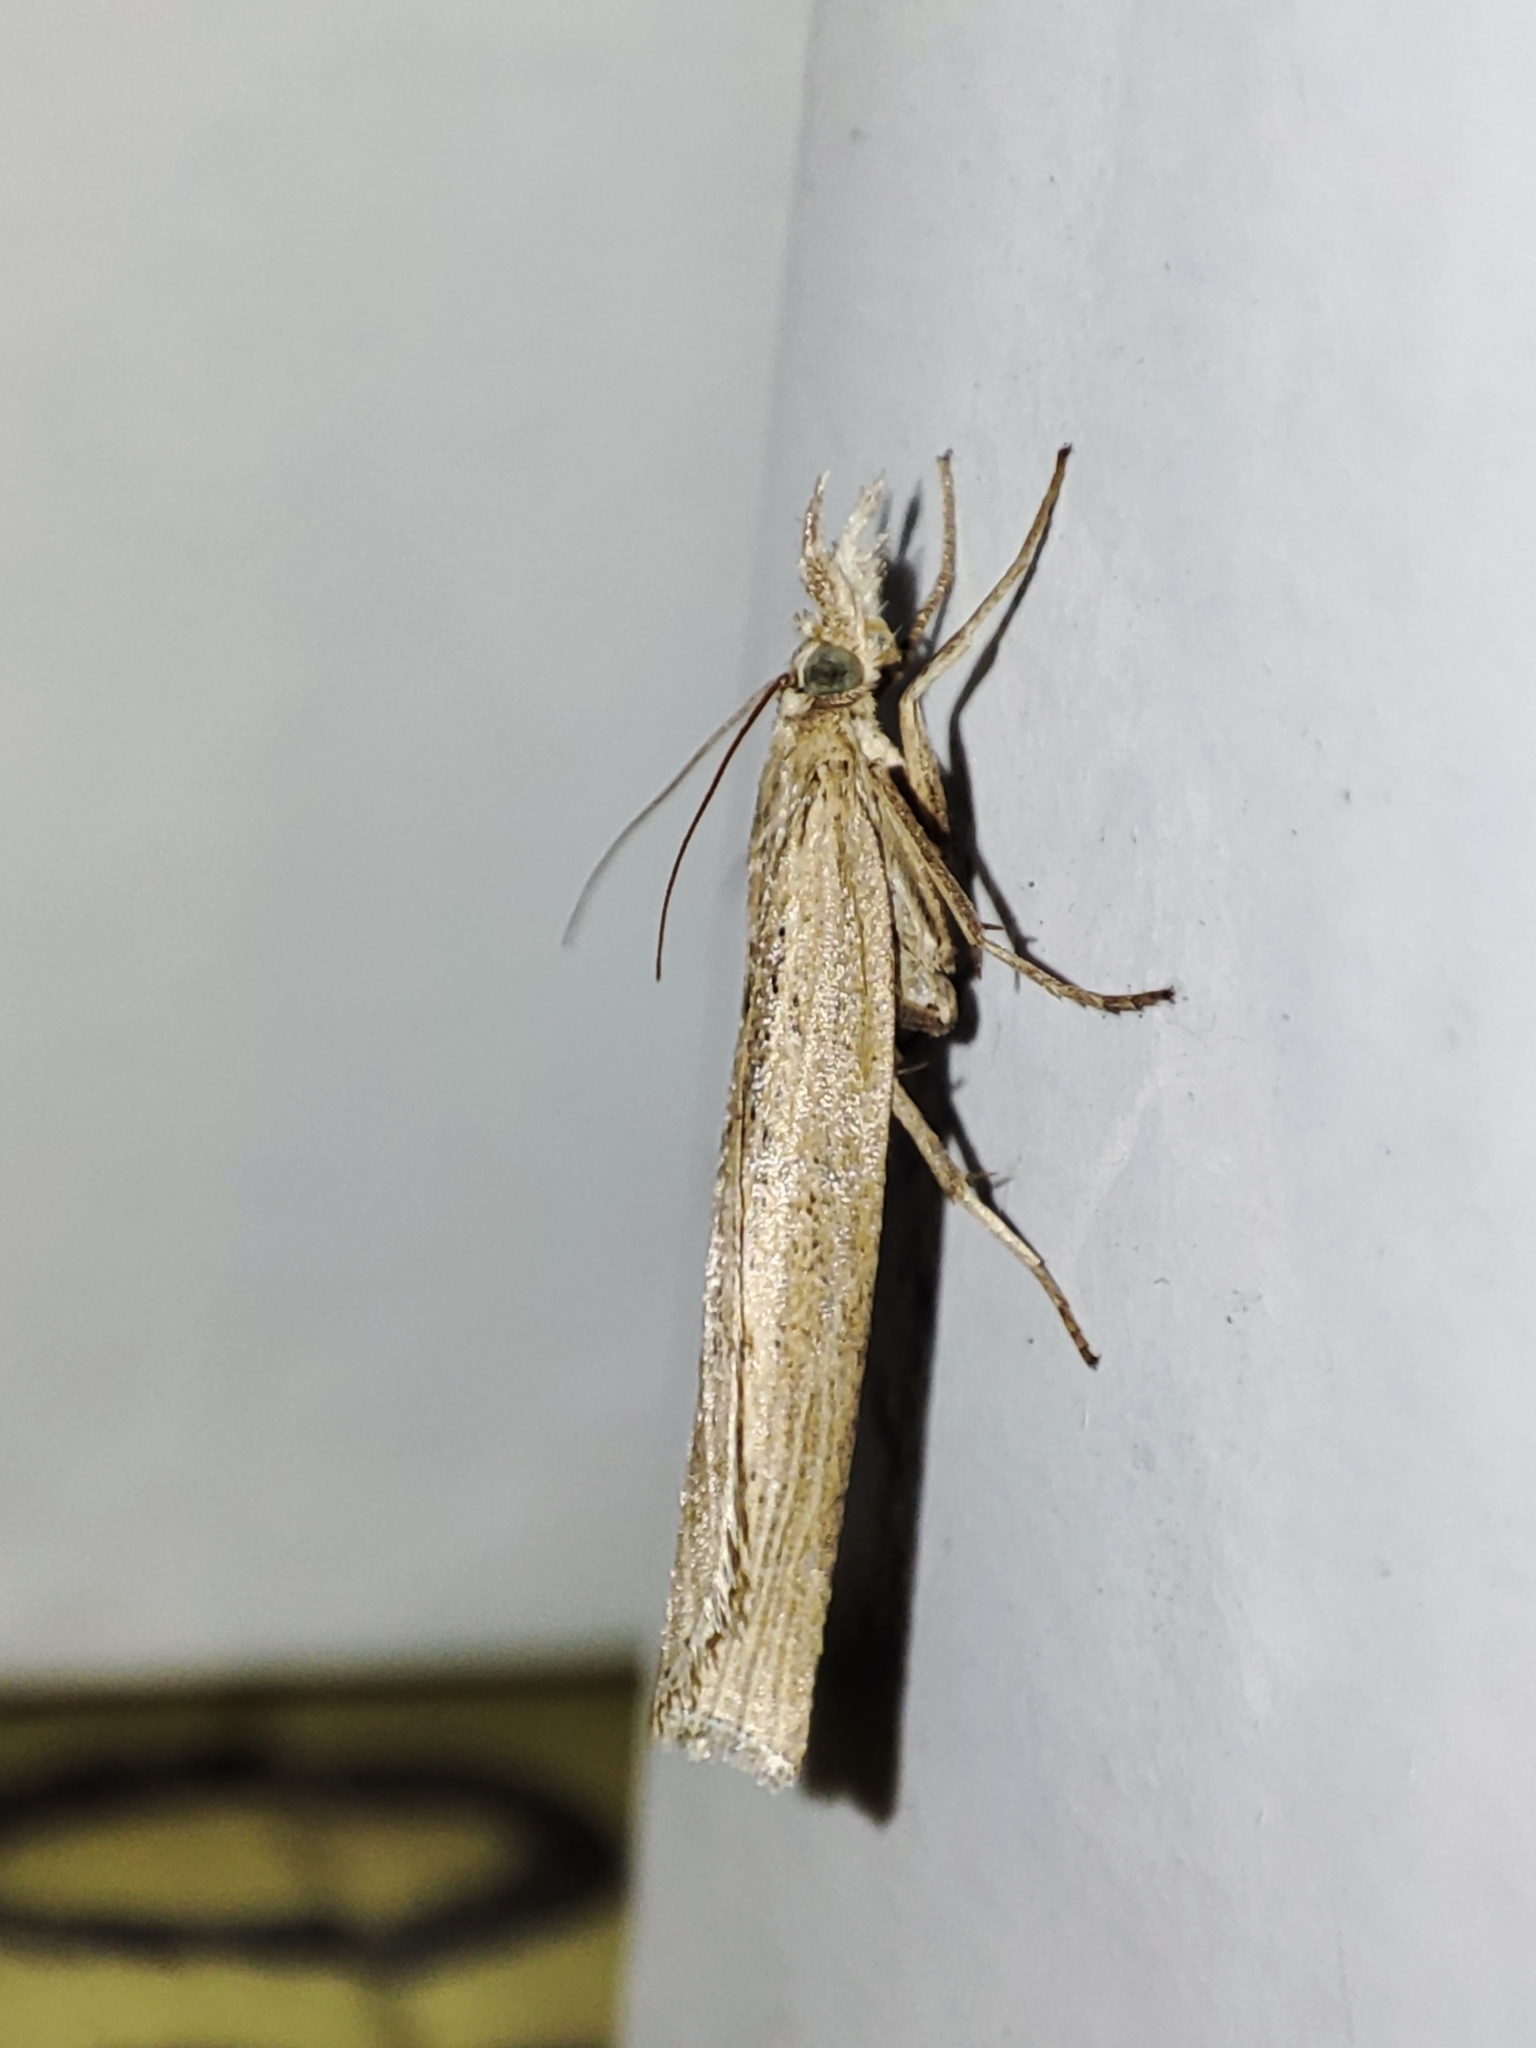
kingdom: Animalia
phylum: Arthropoda
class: Insecta
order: Lepidoptera
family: Crambidae
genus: Pediasia
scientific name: Pediasia contaminella
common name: Waste grass-veneer
